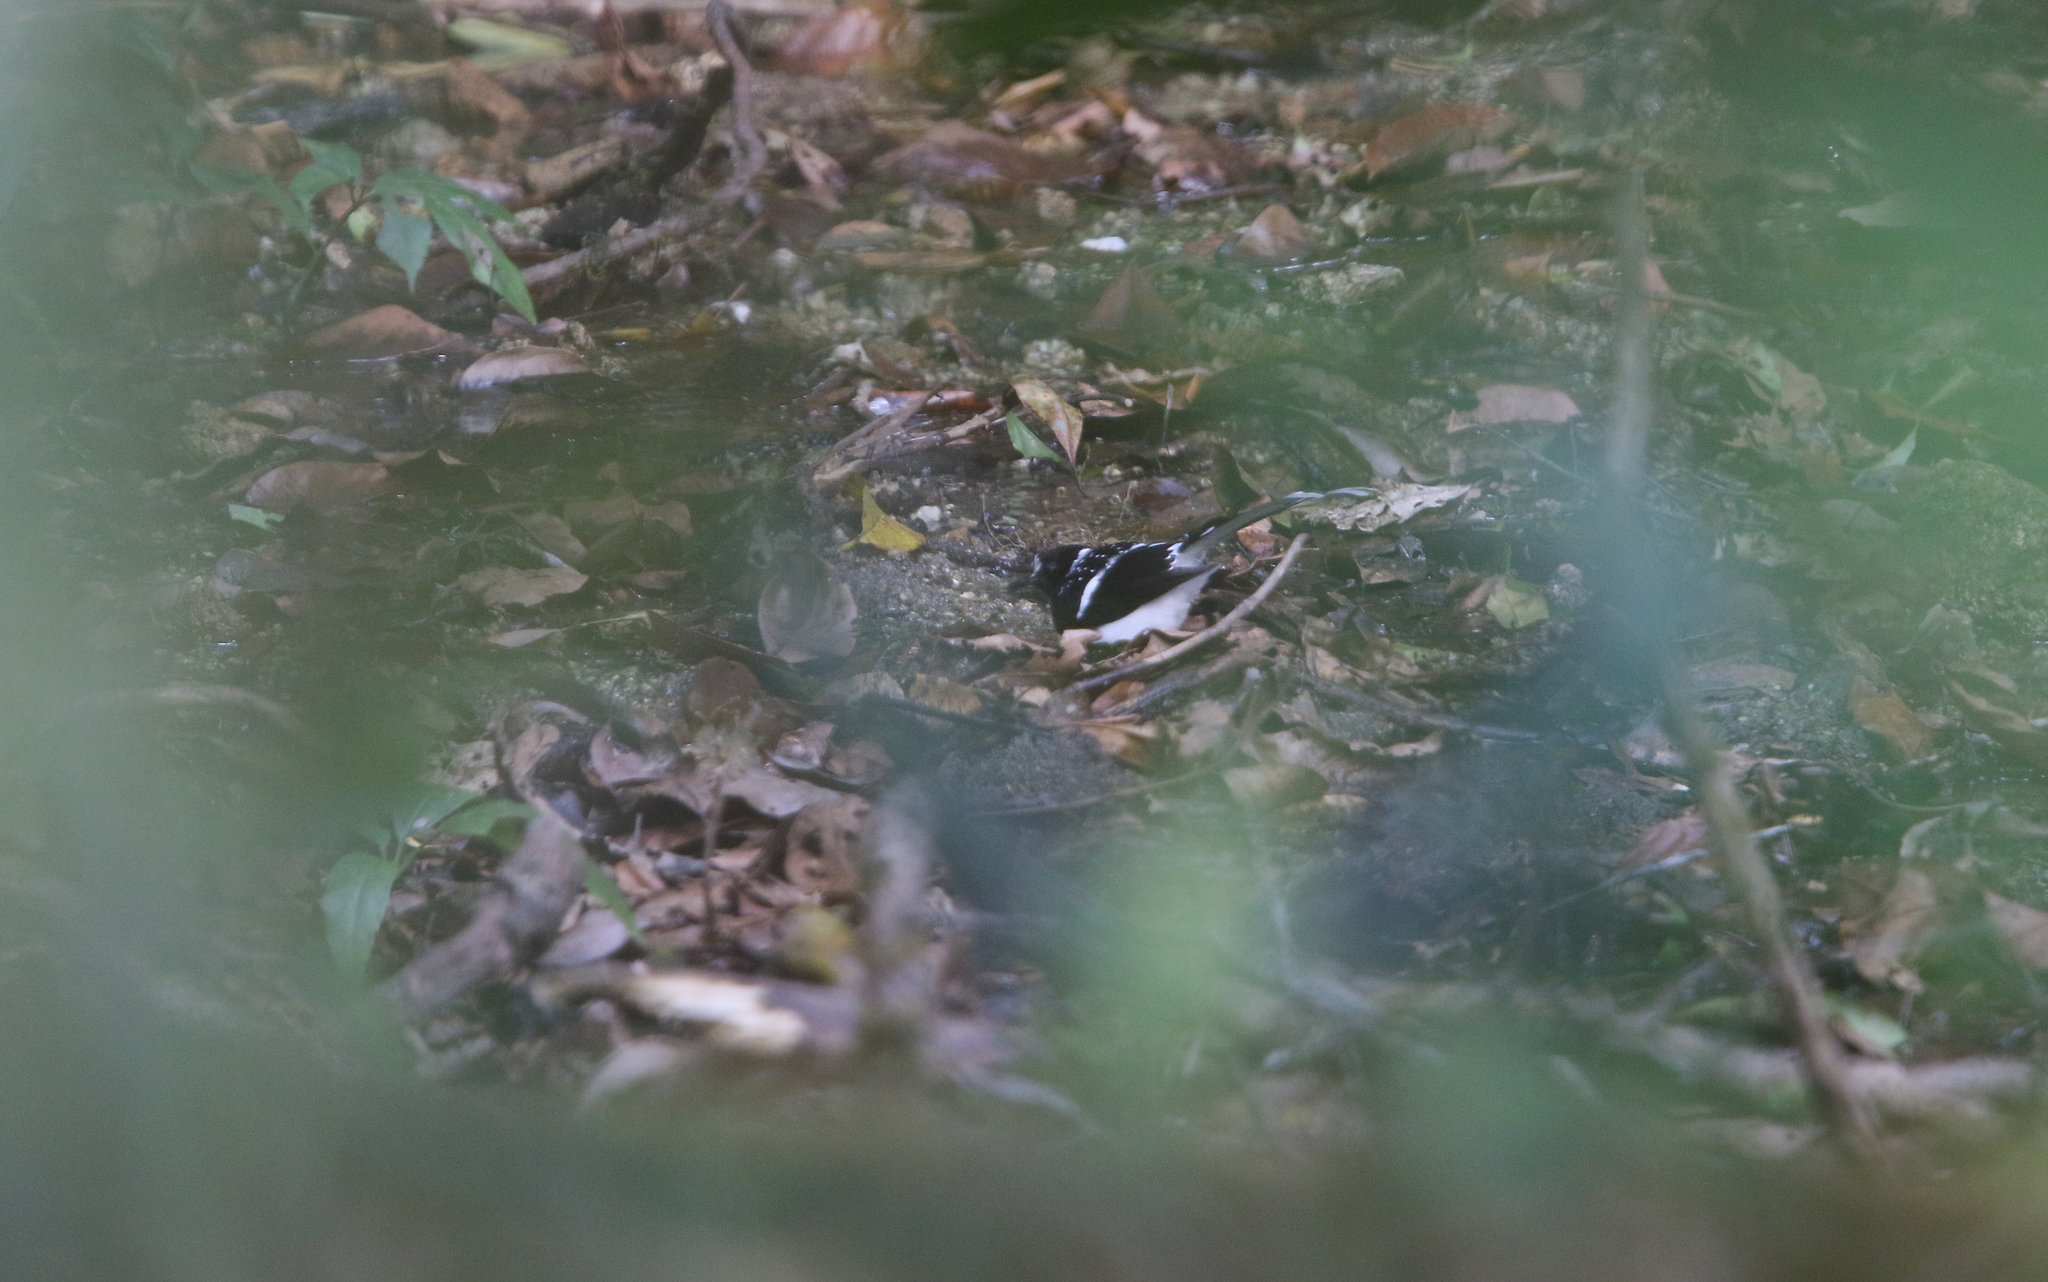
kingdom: Animalia
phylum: Chordata
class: Aves
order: Passeriformes
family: Muscicapidae
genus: Enicurus
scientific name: Enicurus maculatus
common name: Spotted forktail
